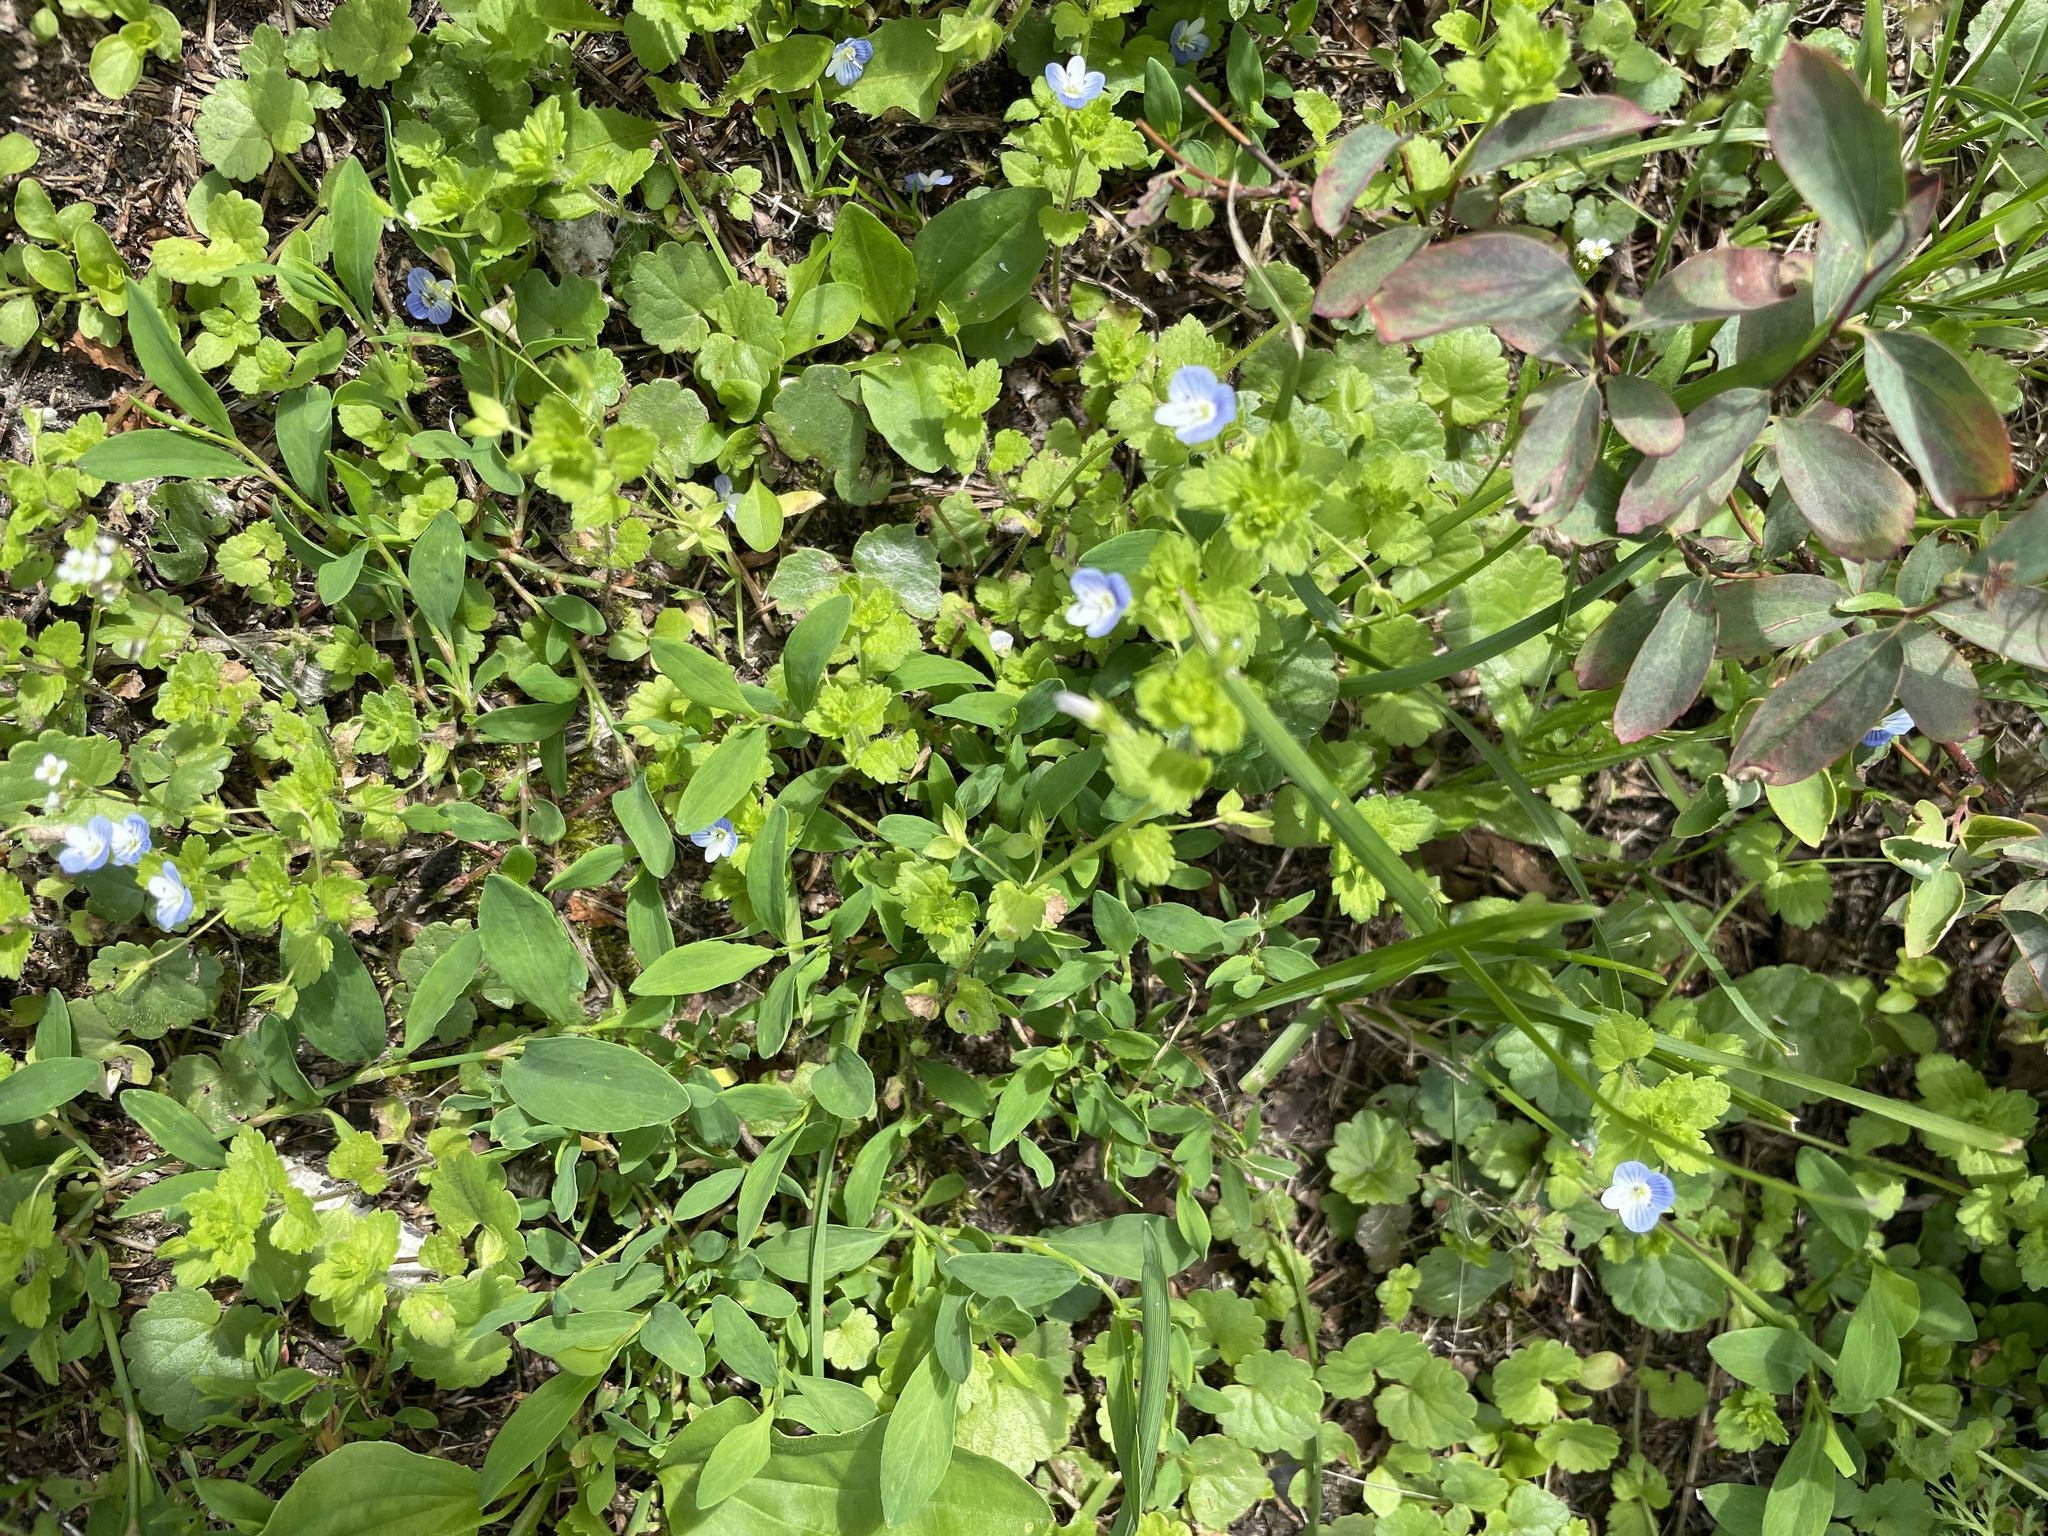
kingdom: Plantae
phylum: Tracheophyta
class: Magnoliopsida
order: Lamiales
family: Plantaginaceae
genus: Veronica
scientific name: Veronica persica
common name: Common field-speedwell
